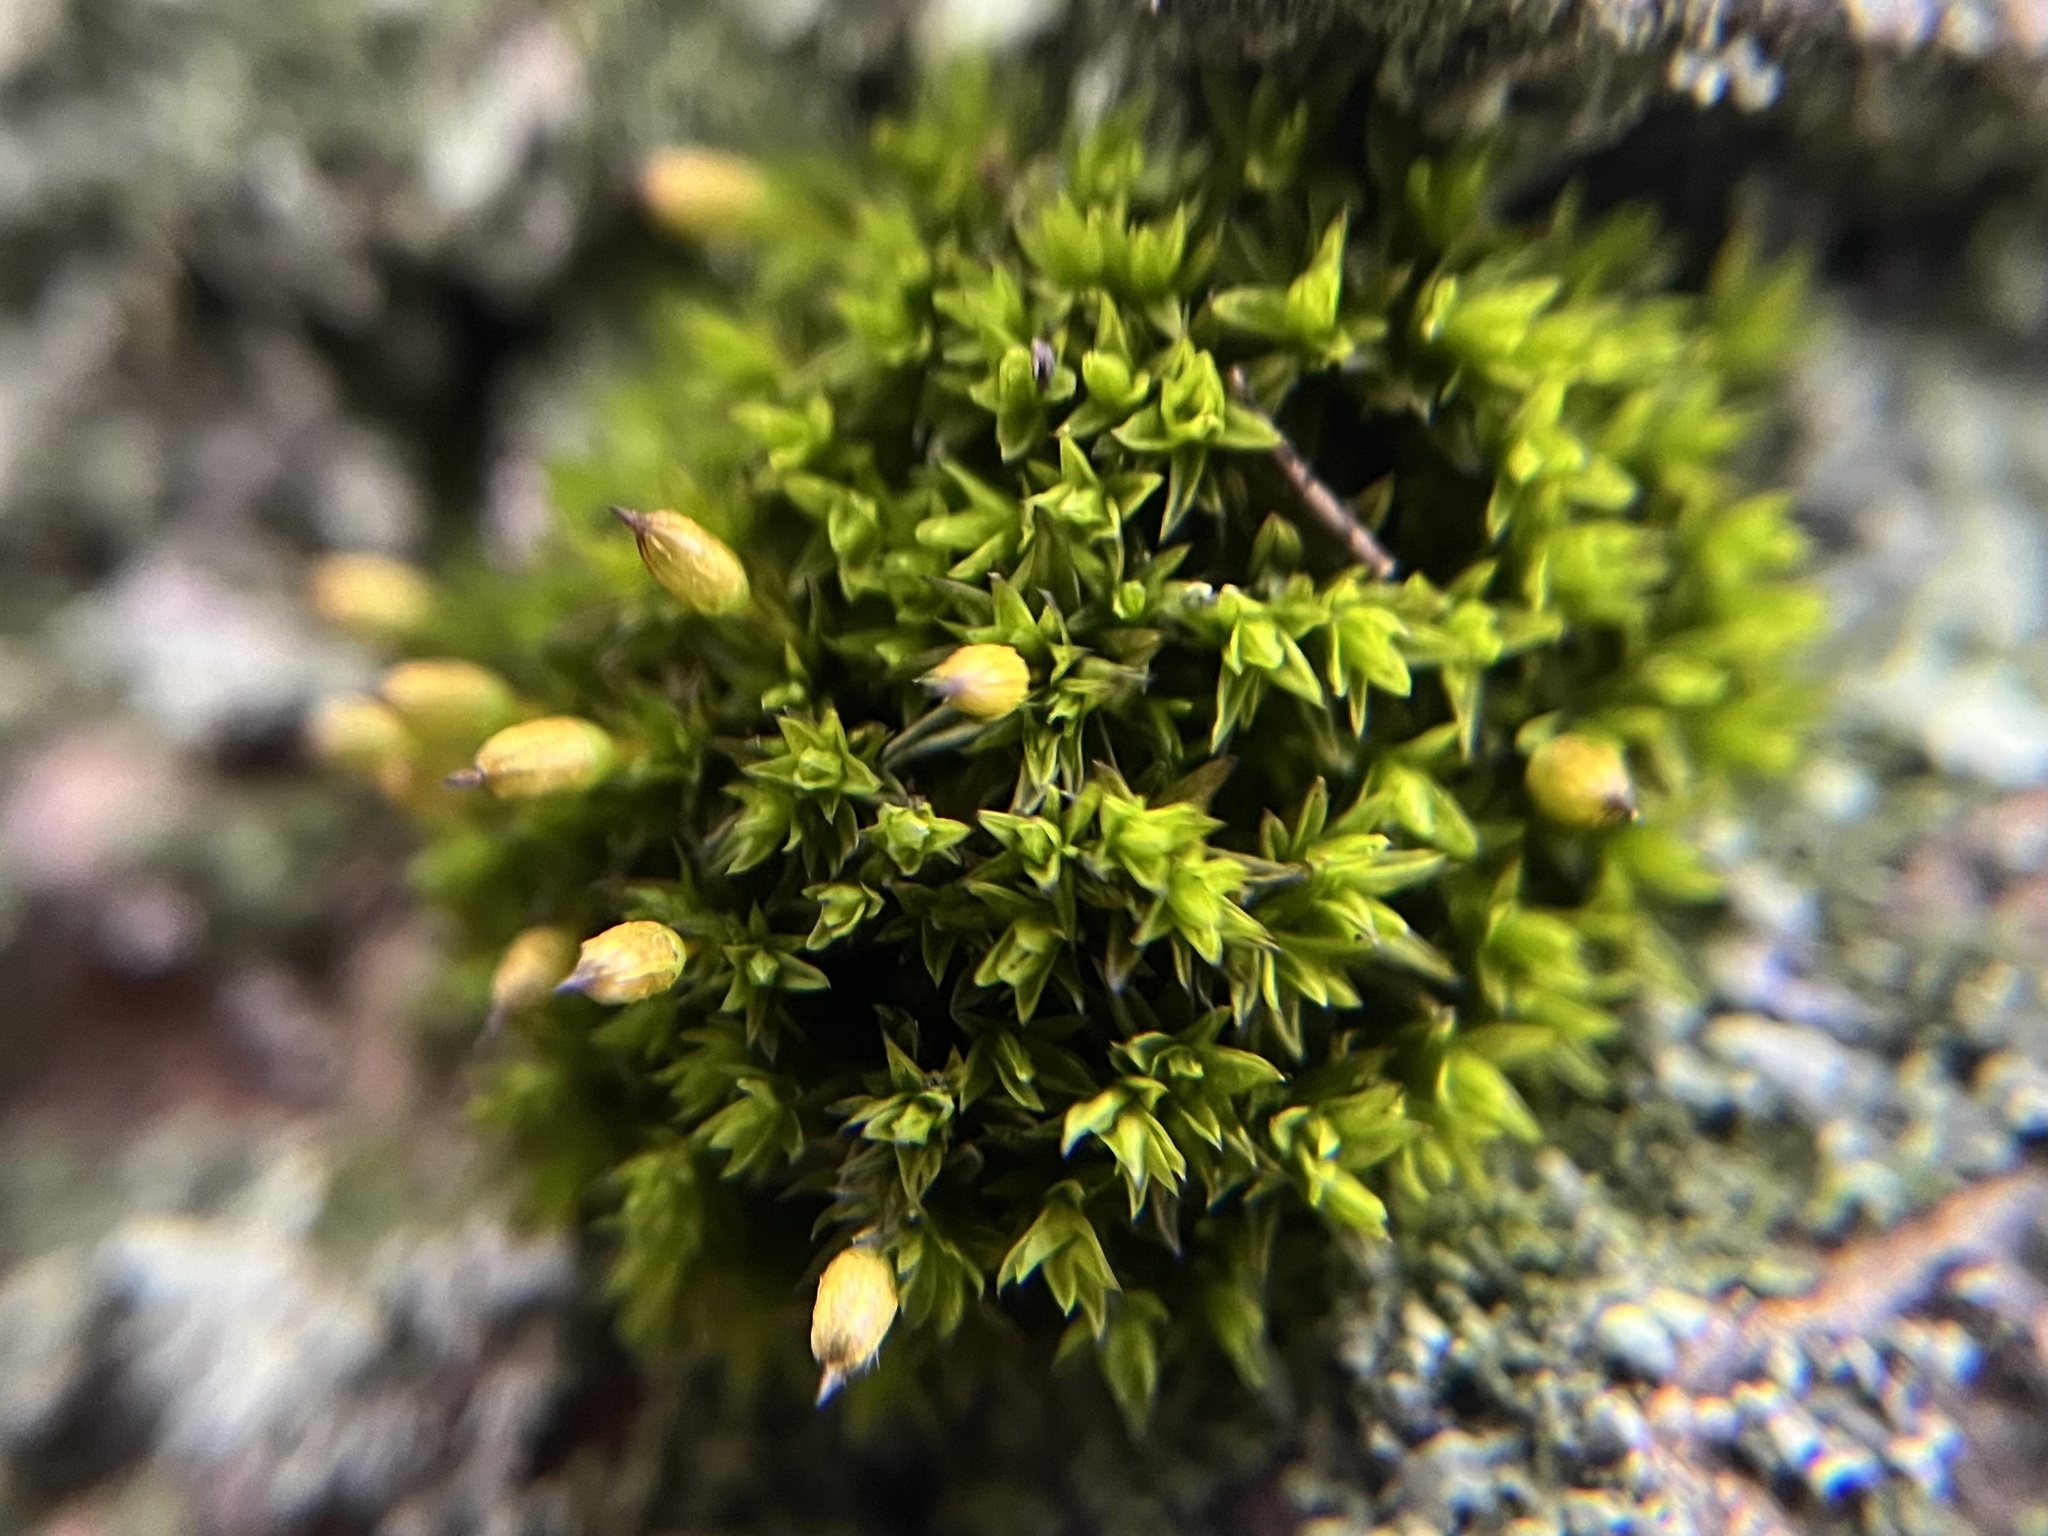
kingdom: Plantae
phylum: Bryophyta
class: Bryopsida
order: Orthotrichales
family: Orthotrichaceae
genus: Orthotrichum
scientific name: Orthotrichum anomalum
